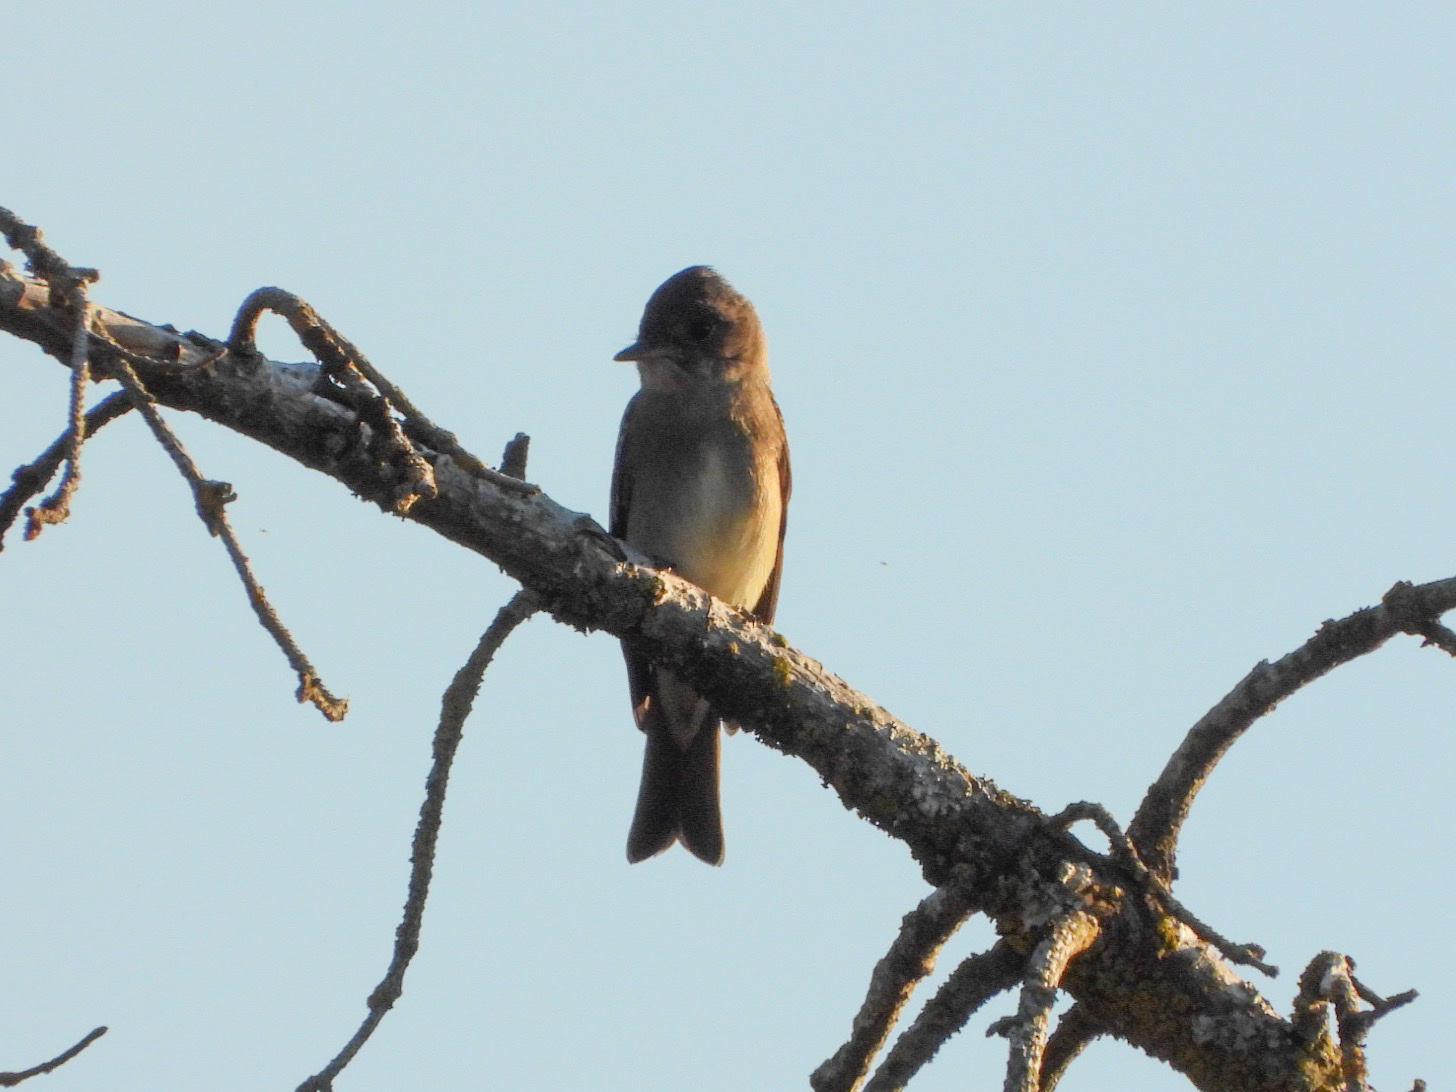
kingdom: Animalia
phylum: Chordata
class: Aves
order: Passeriformes
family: Tyrannidae
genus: Contopus
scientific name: Contopus sordidulus
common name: Western wood-pewee
